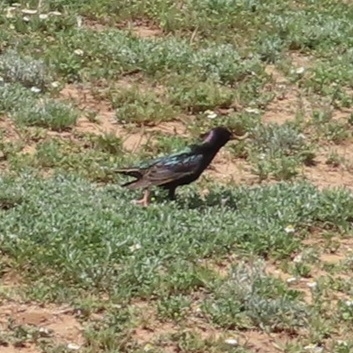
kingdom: Animalia
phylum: Chordata
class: Aves
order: Passeriformes
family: Sturnidae
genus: Sturnus
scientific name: Sturnus vulgaris
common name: Common starling
